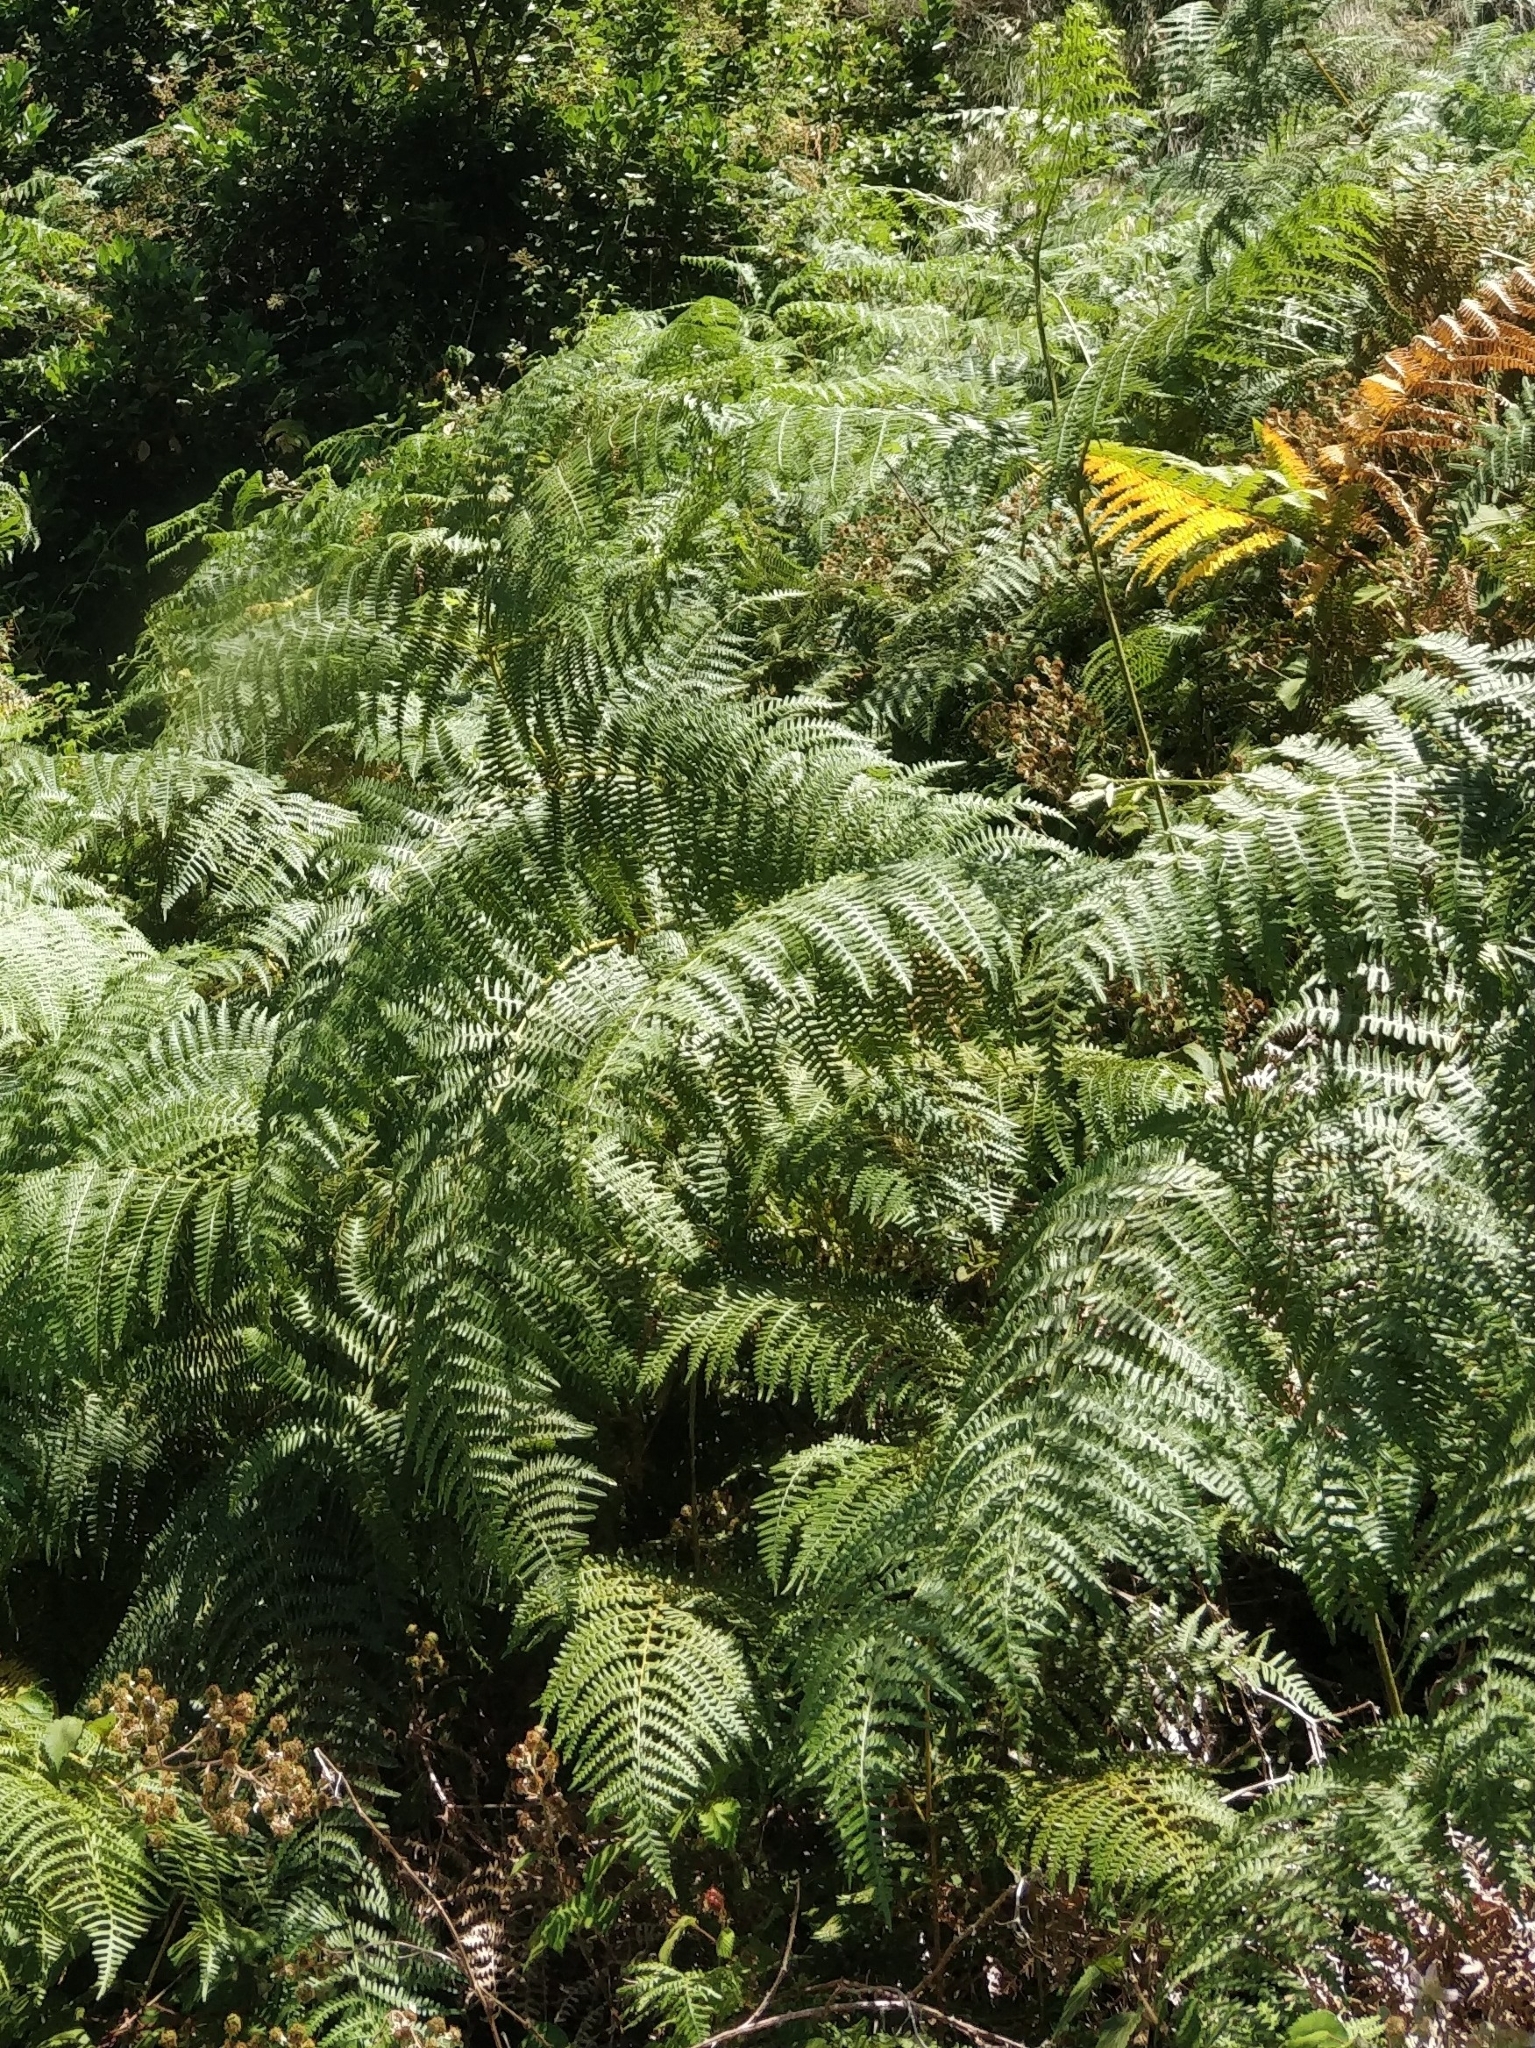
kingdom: Plantae
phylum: Tracheophyta
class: Polypodiopsida
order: Polypodiales
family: Dennstaedtiaceae
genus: Pteridium
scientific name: Pteridium aquilinum
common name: Bracken
